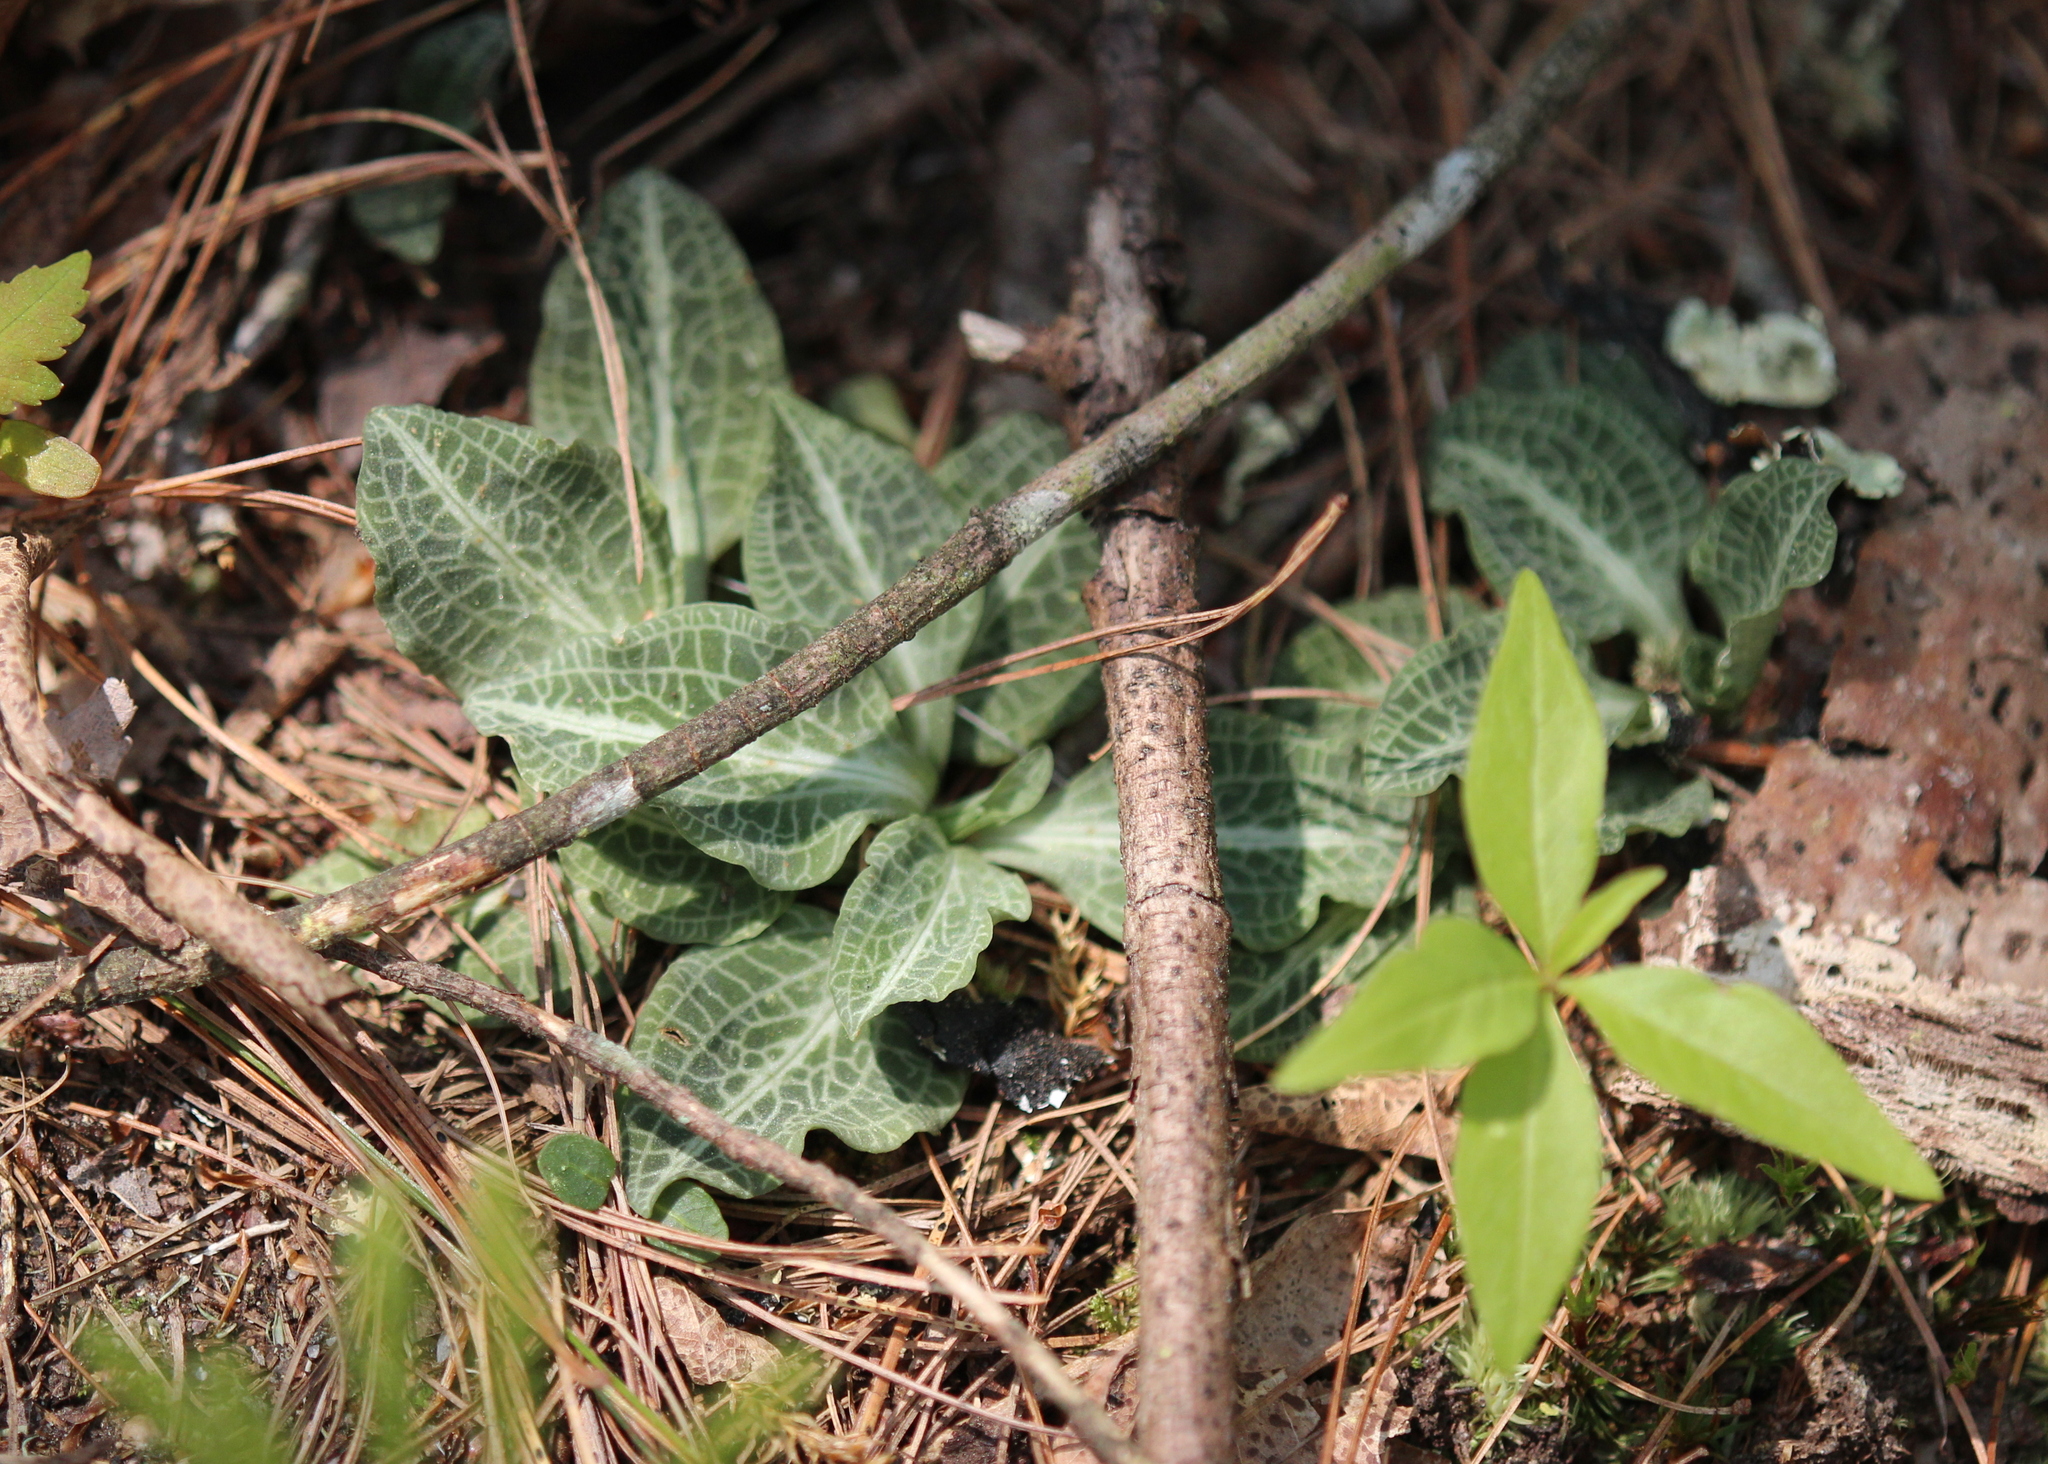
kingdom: Plantae
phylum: Tracheophyta
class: Liliopsida
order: Asparagales
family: Orchidaceae
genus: Goodyera
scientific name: Goodyera pubescens
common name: Downy rattlesnake-plantain
